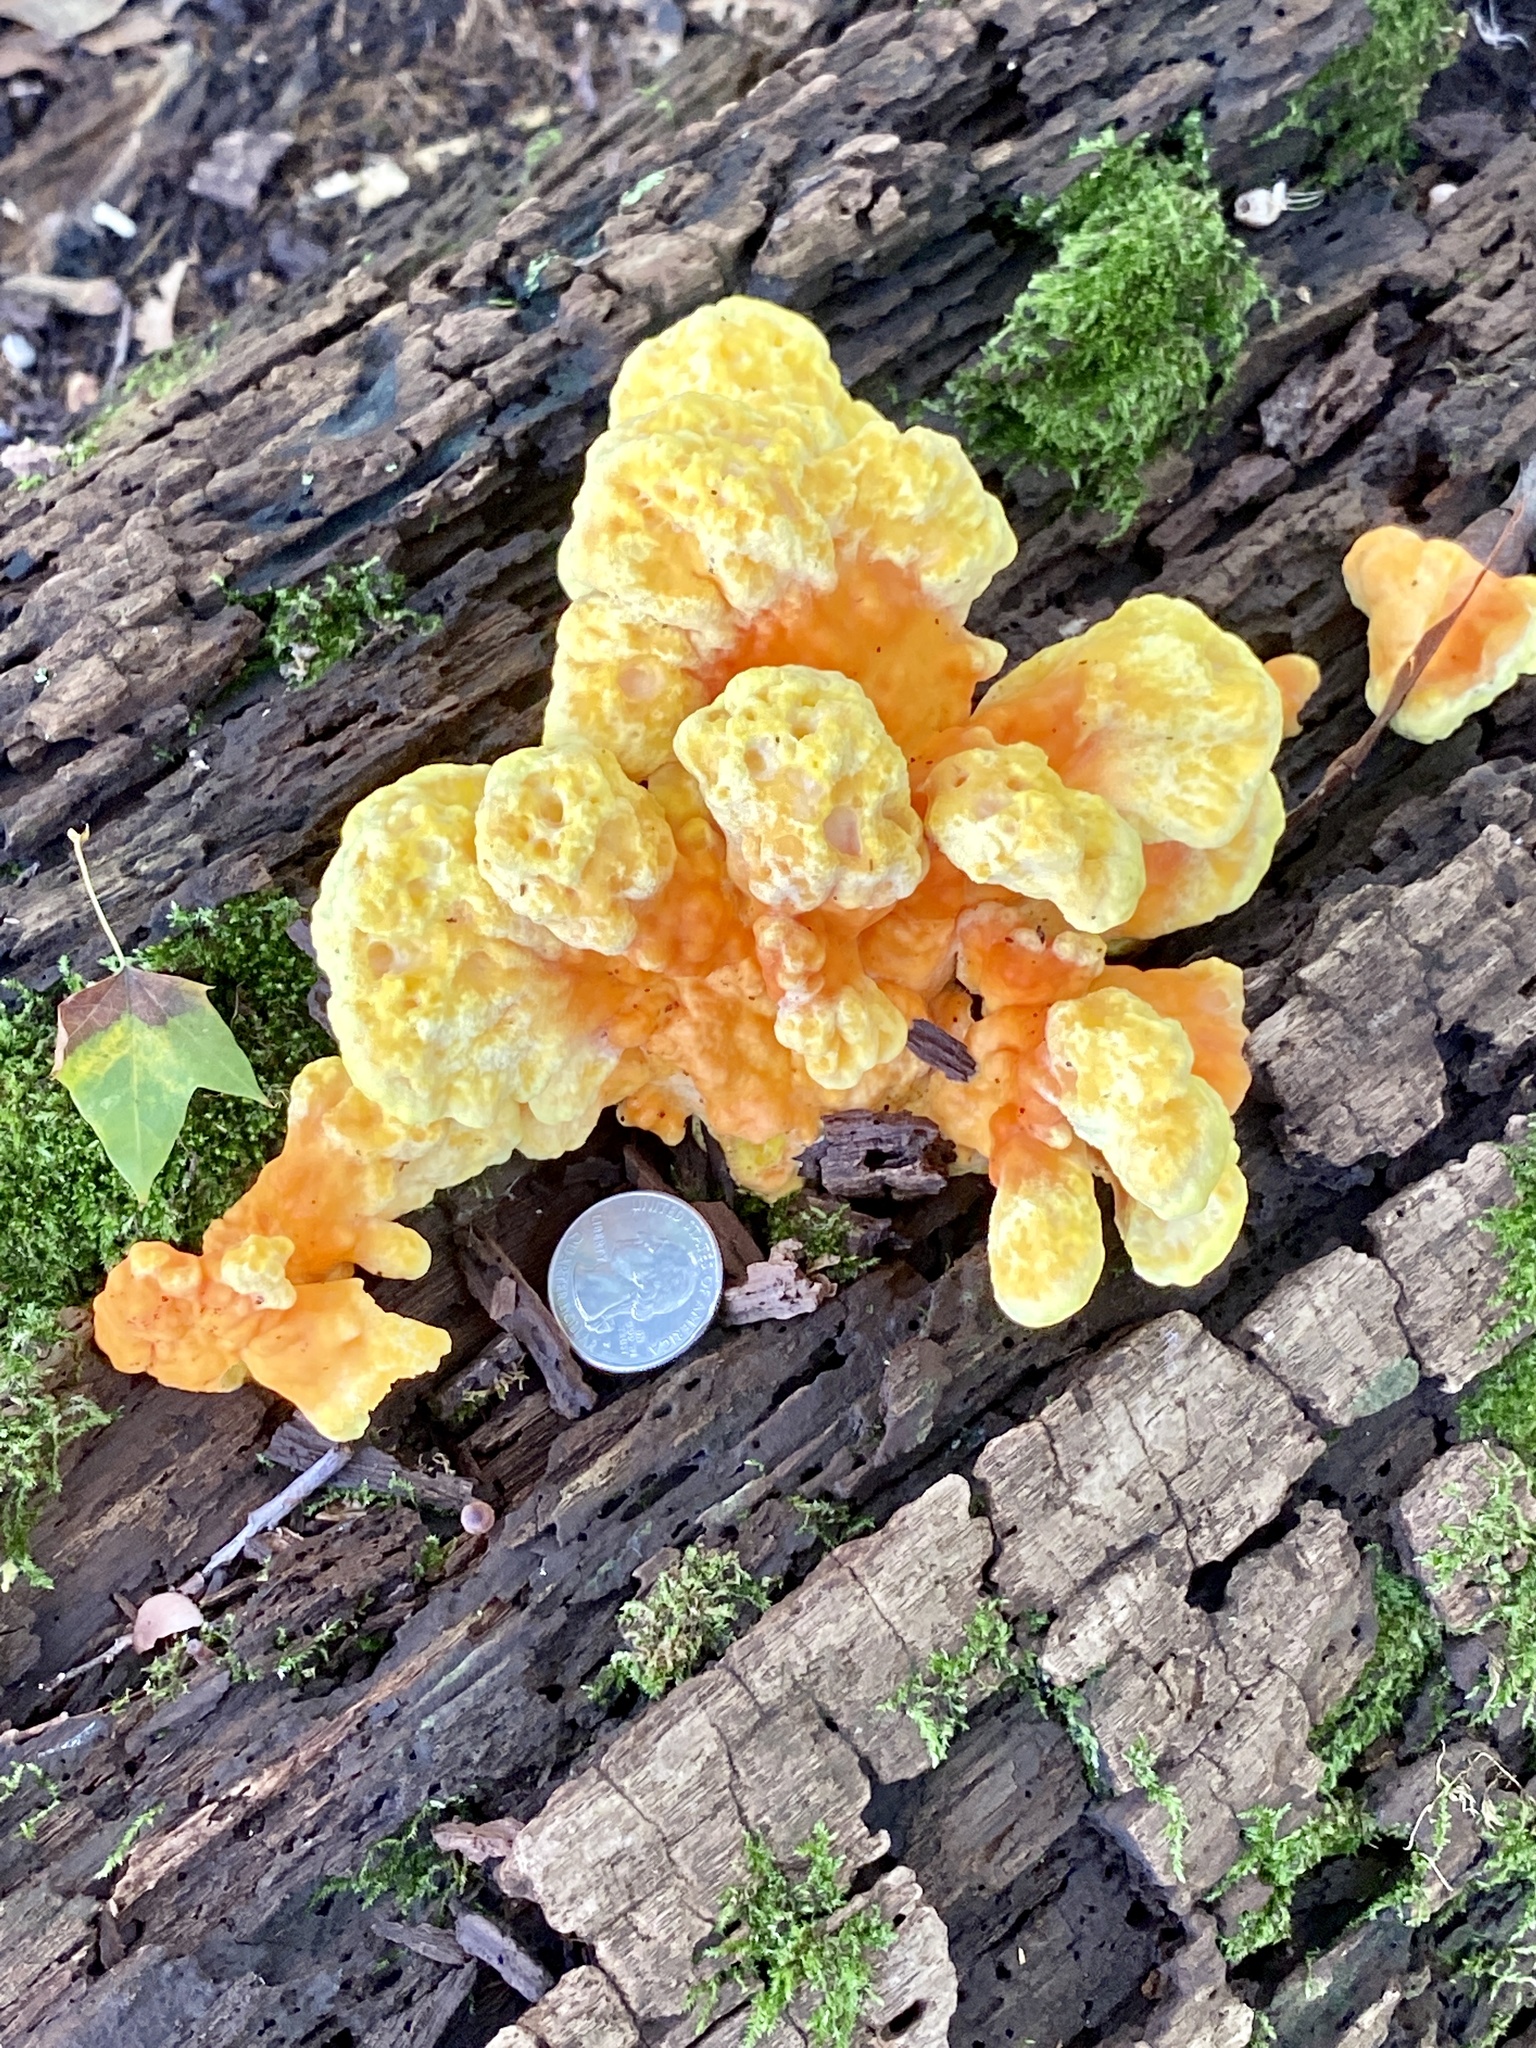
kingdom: Fungi
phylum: Basidiomycota
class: Agaricomycetes
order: Polyporales
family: Laetiporaceae
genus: Laetiporus
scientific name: Laetiporus sulphureus
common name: Chicken of the woods
